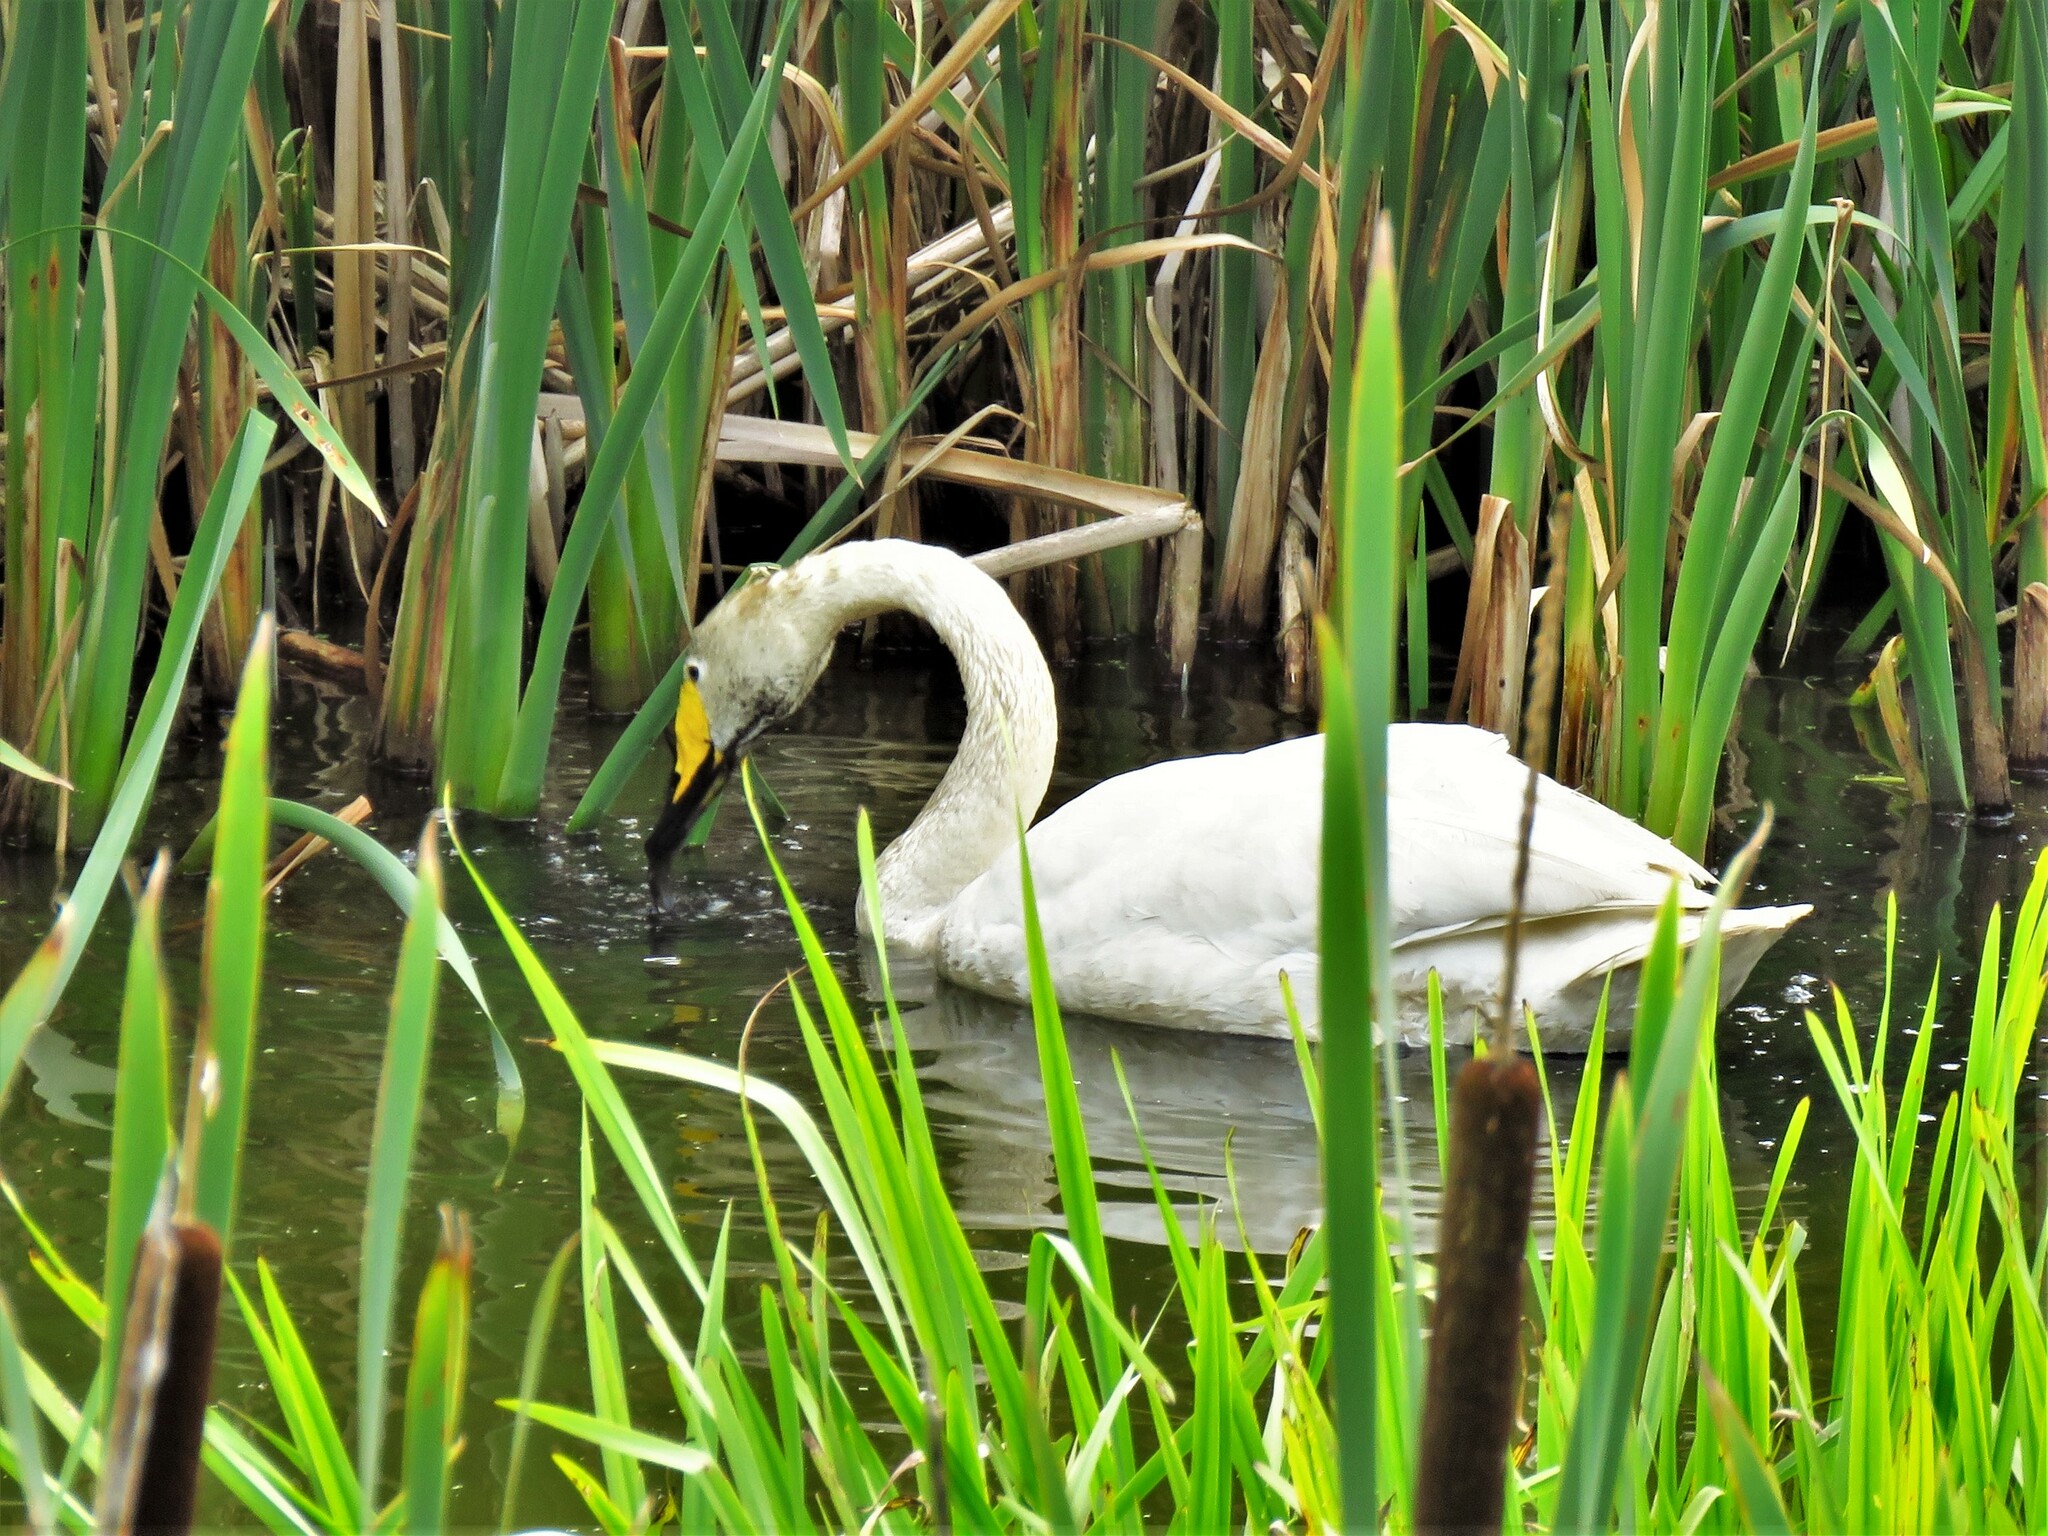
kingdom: Animalia
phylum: Chordata
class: Aves
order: Anseriformes
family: Anatidae
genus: Cygnus
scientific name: Cygnus cygnus
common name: Whooper swan
